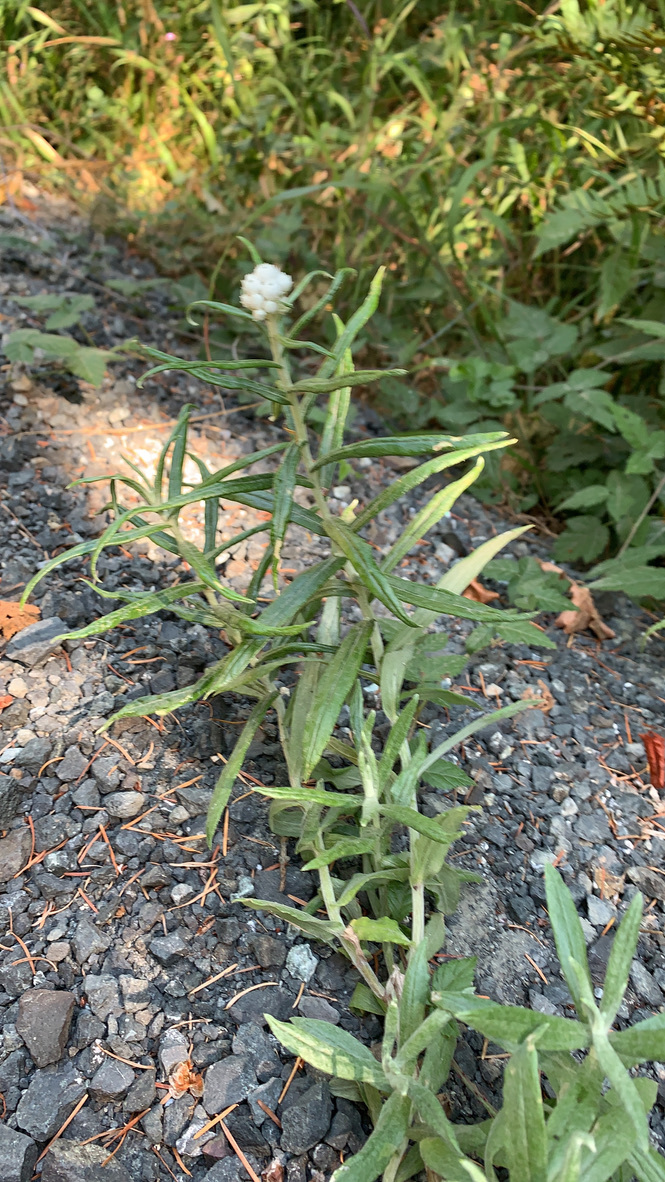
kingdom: Plantae
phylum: Tracheophyta
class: Magnoliopsida
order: Asterales
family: Asteraceae
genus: Anaphalis
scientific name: Anaphalis margaritacea
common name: Pearly everlasting
